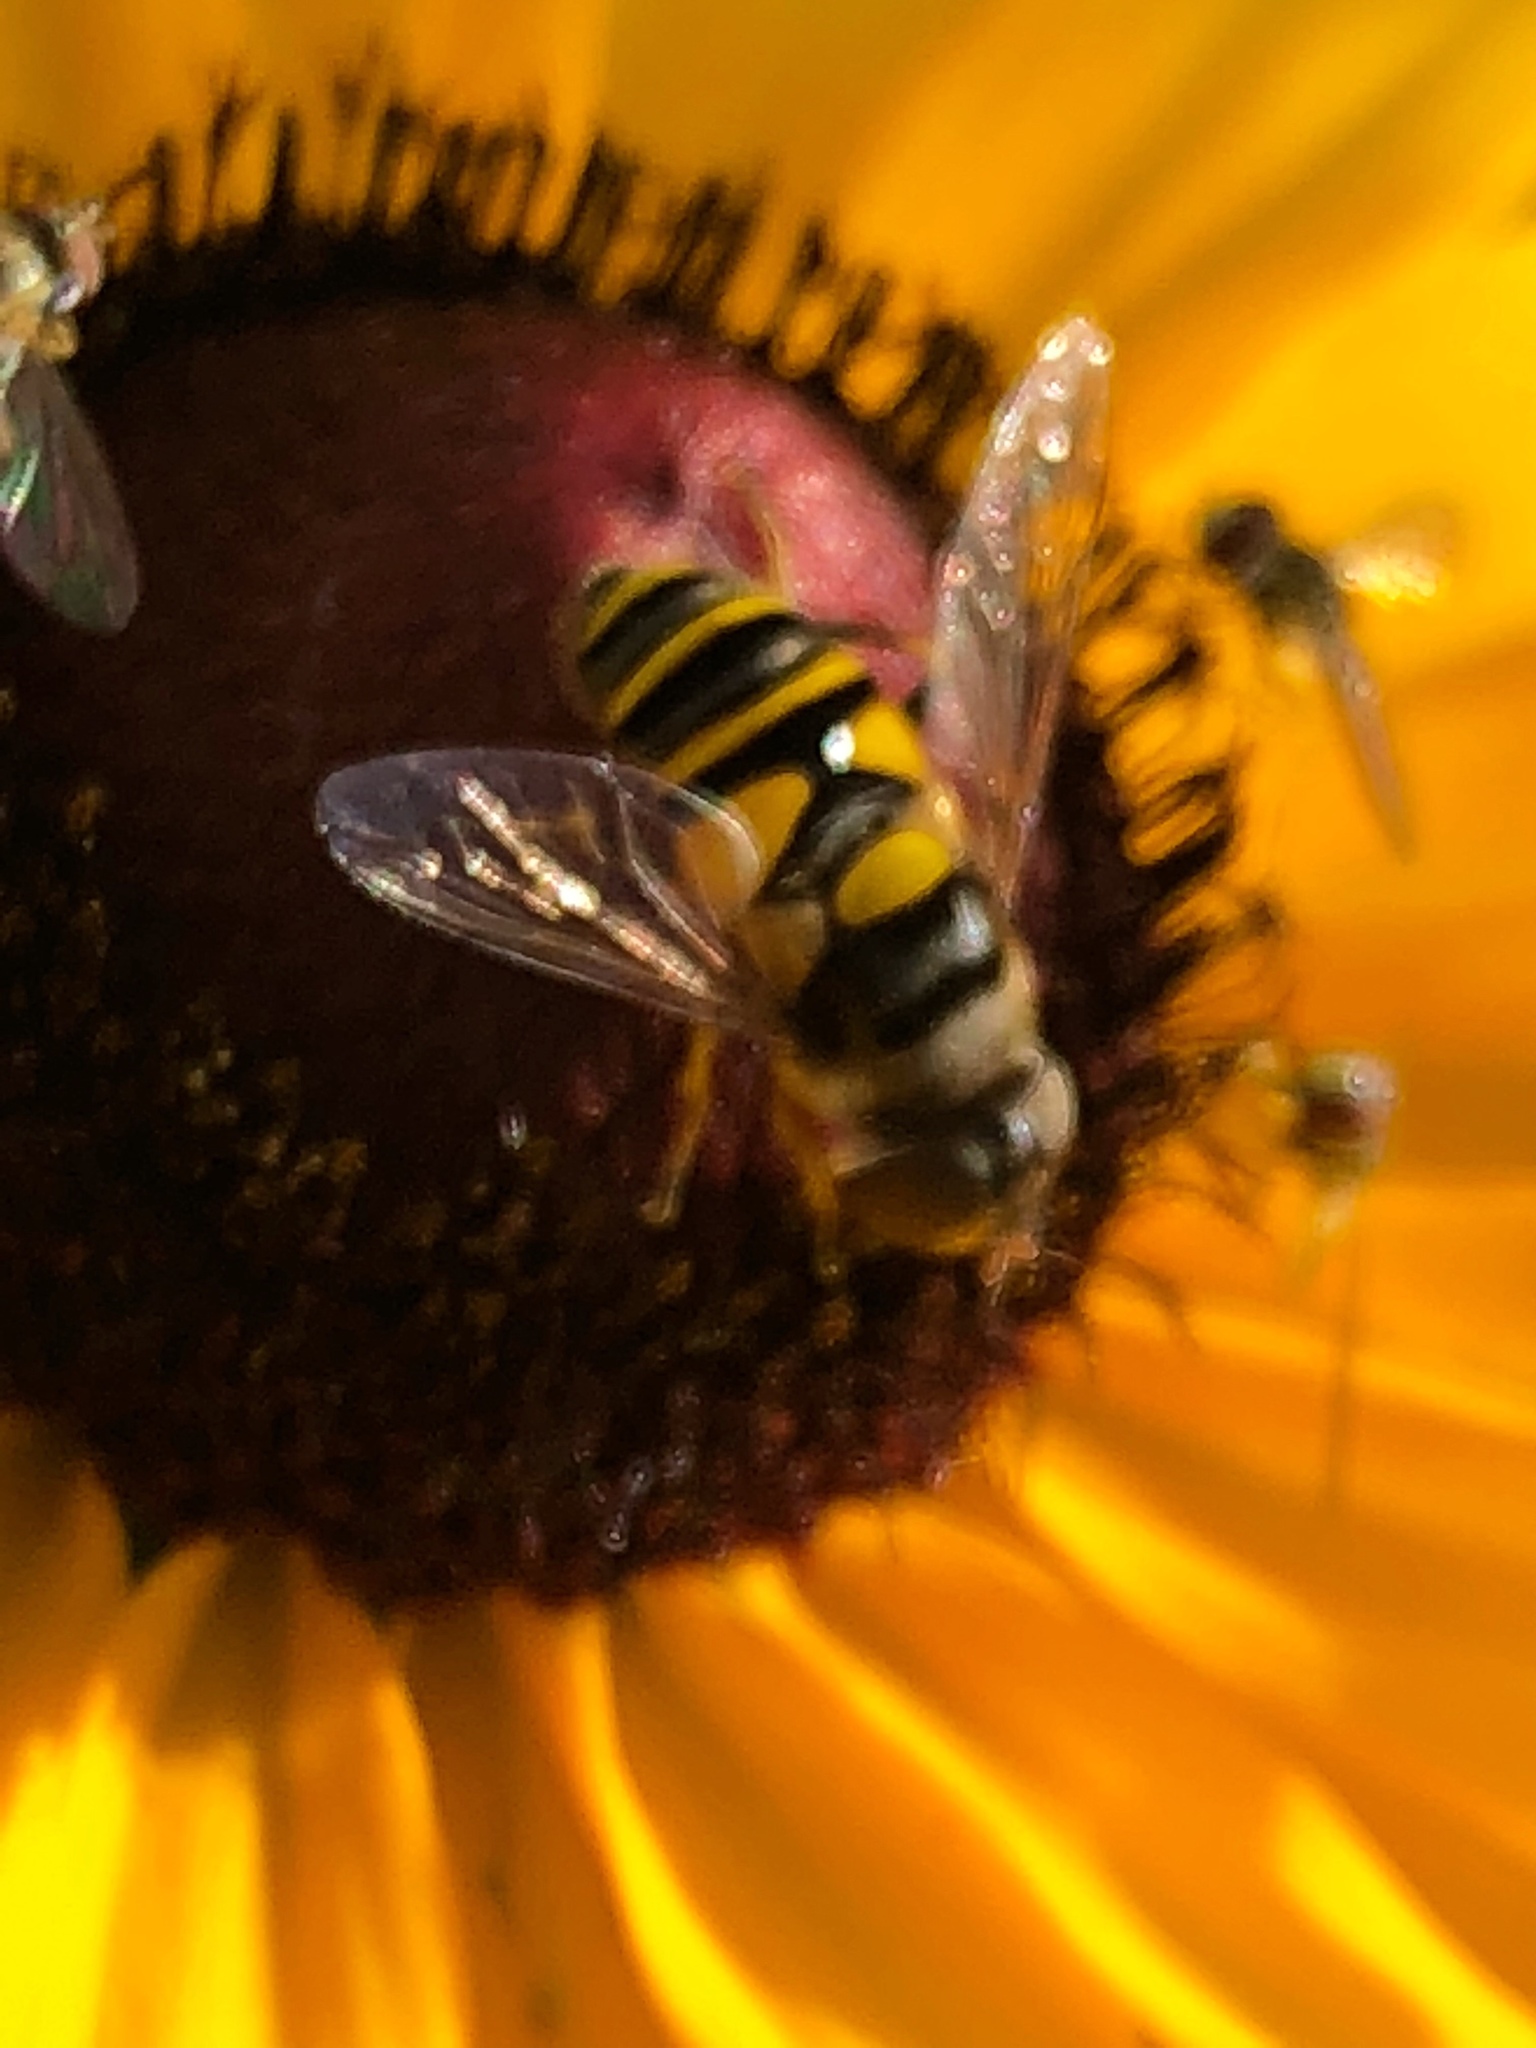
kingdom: Animalia
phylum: Arthropoda
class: Insecta
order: Diptera
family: Syrphidae
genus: Eristalis
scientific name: Eristalis transversa
